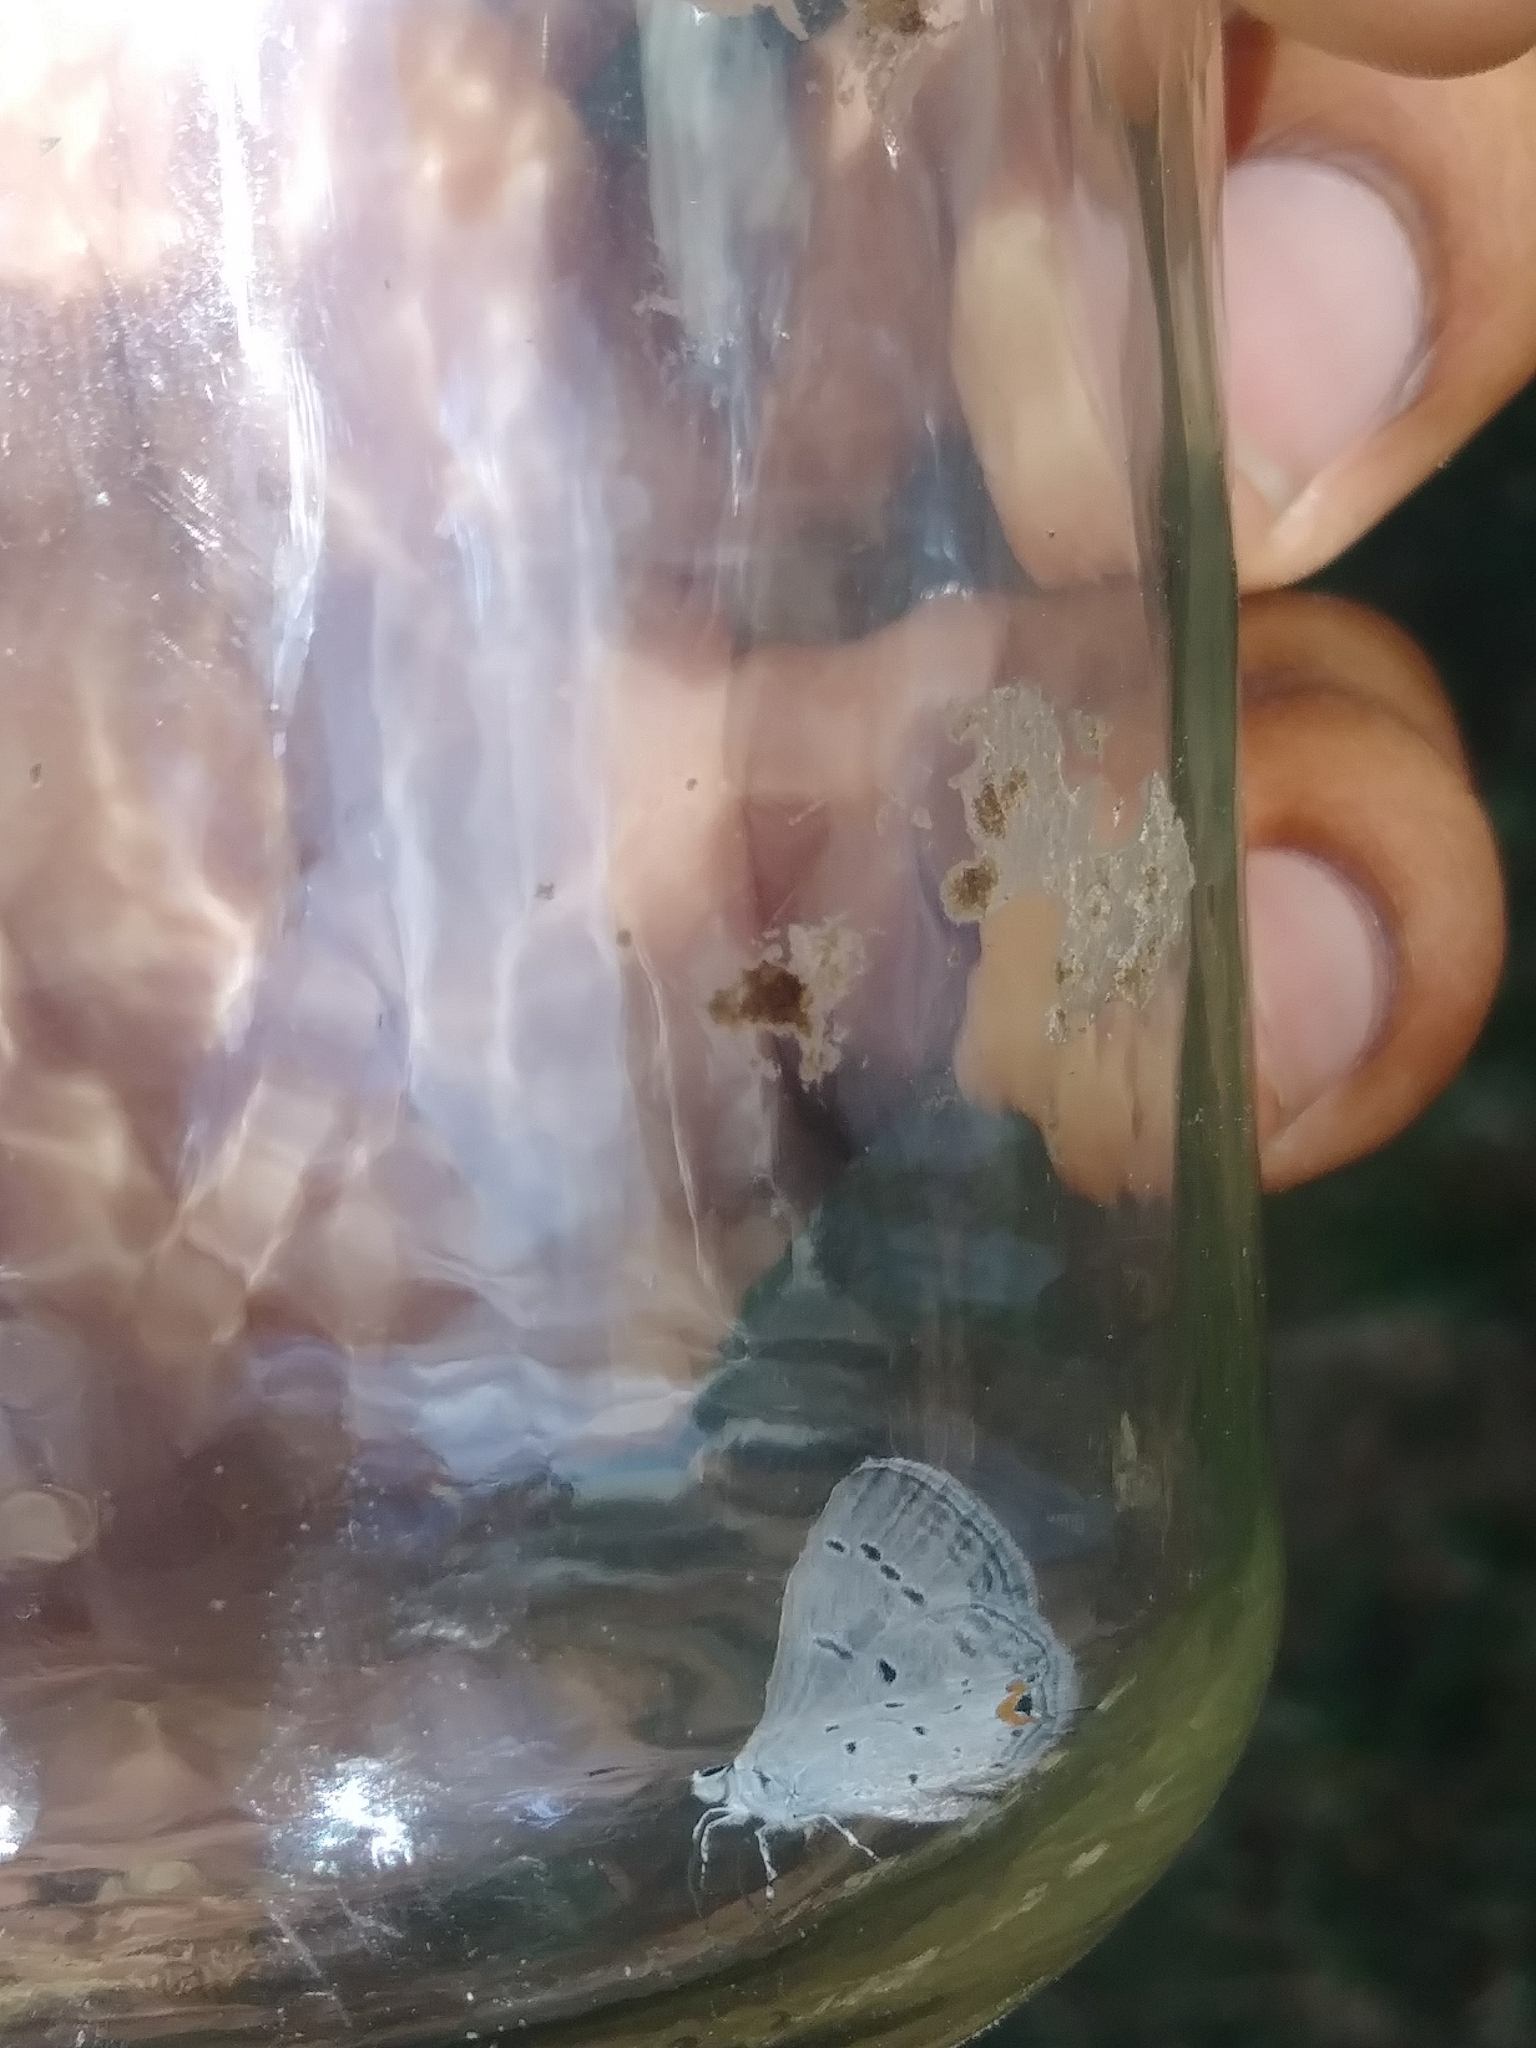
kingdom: Animalia
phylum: Arthropoda
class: Insecta
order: Lepidoptera
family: Lycaenidae
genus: Elkalyce
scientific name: Elkalyce comyntas
